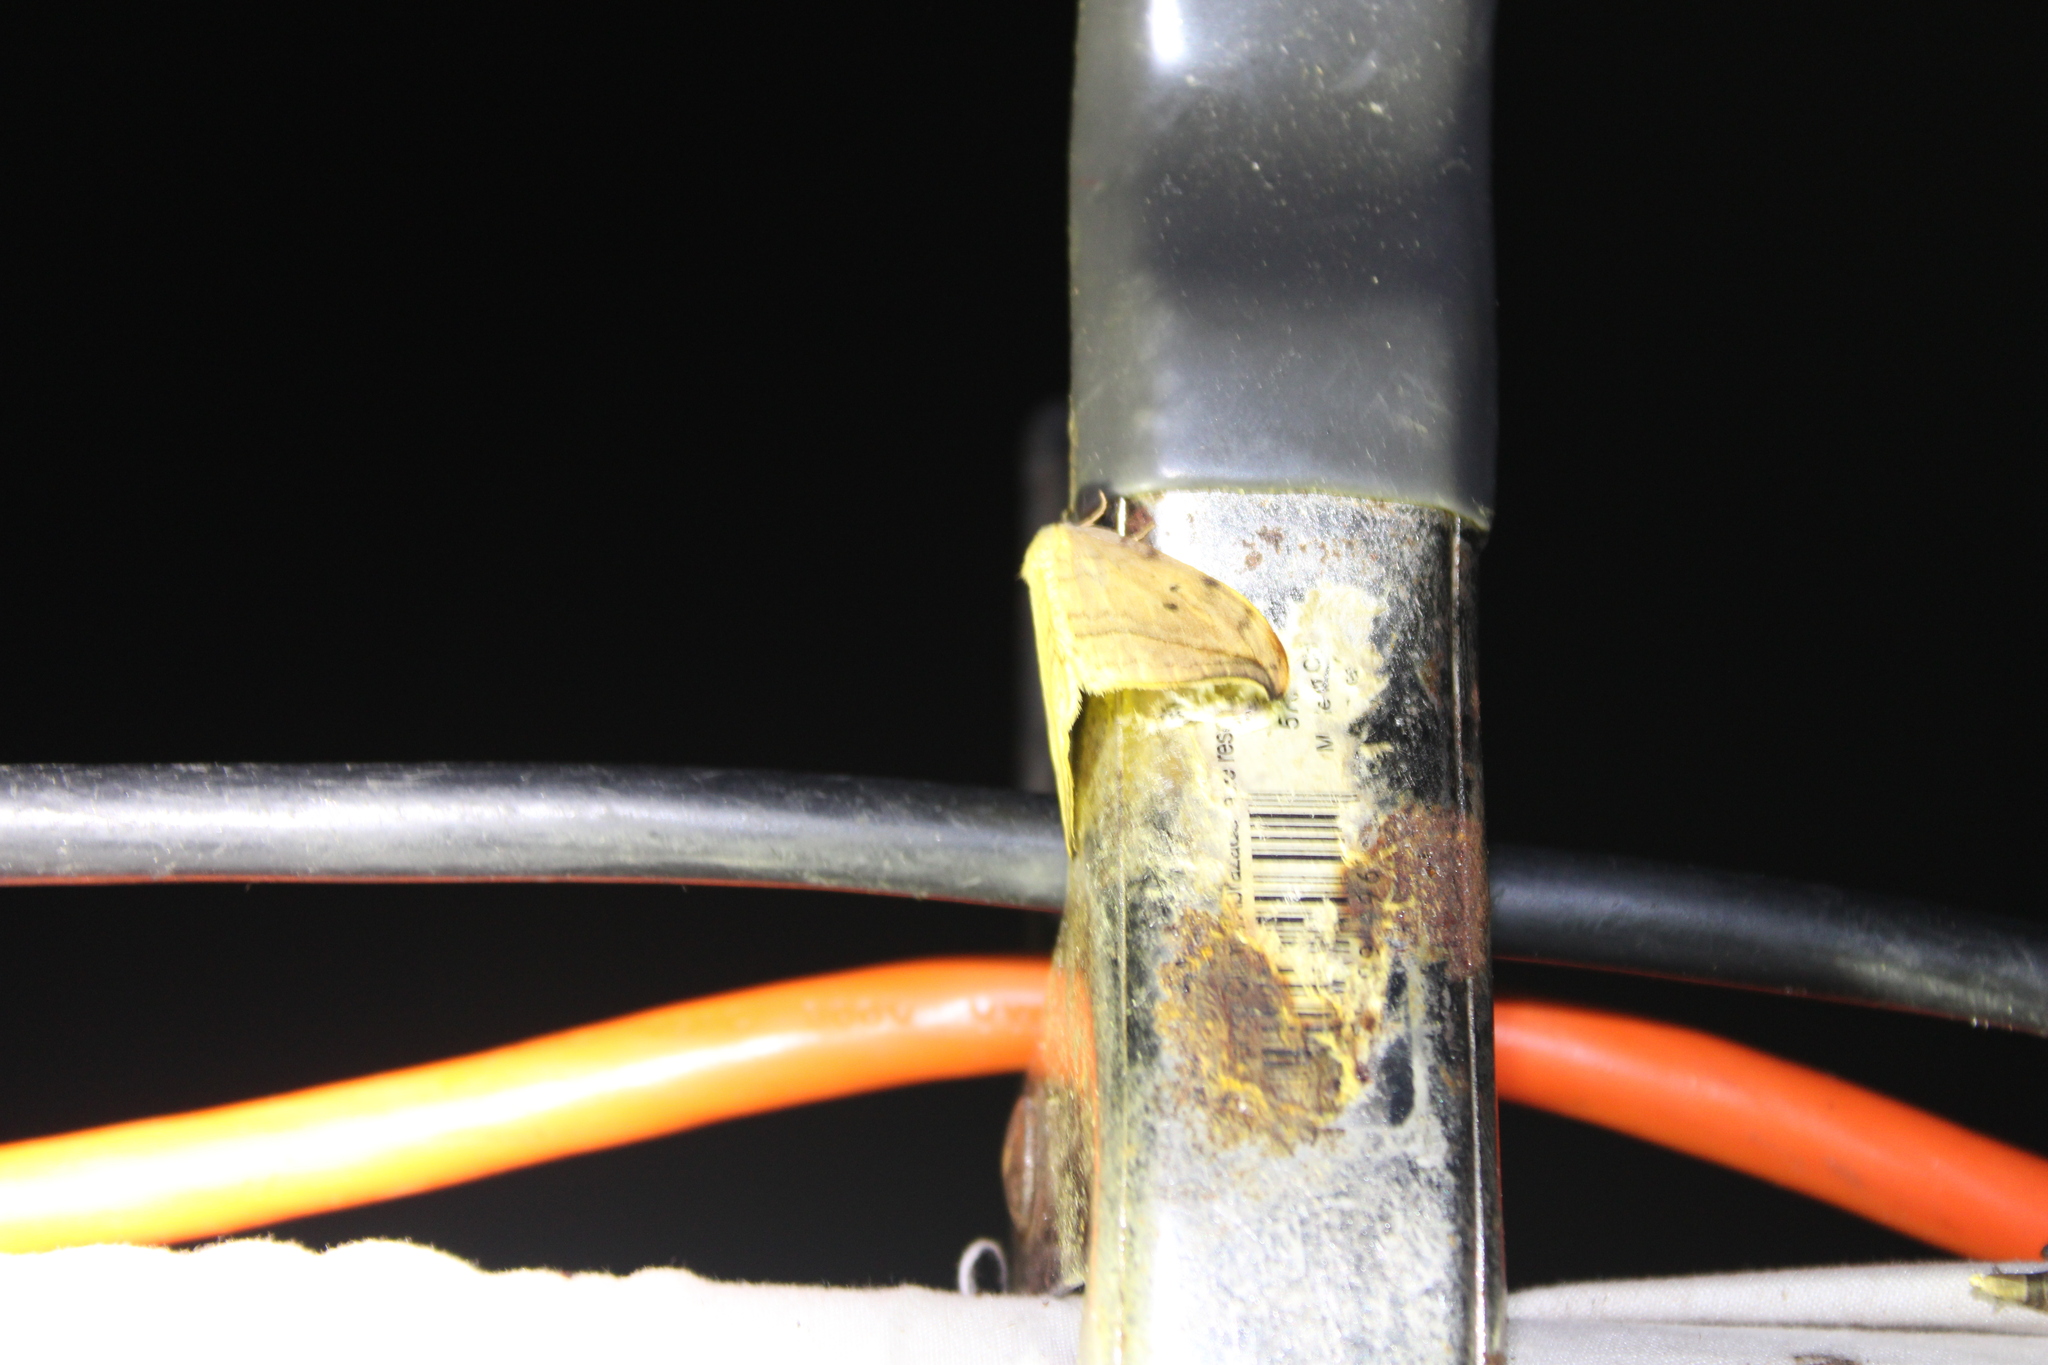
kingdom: Animalia
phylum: Arthropoda
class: Insecta
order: Lepidoptera
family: Drepanidae
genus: Drepana
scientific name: Drepana arcuata
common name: Arched hooktip moth
